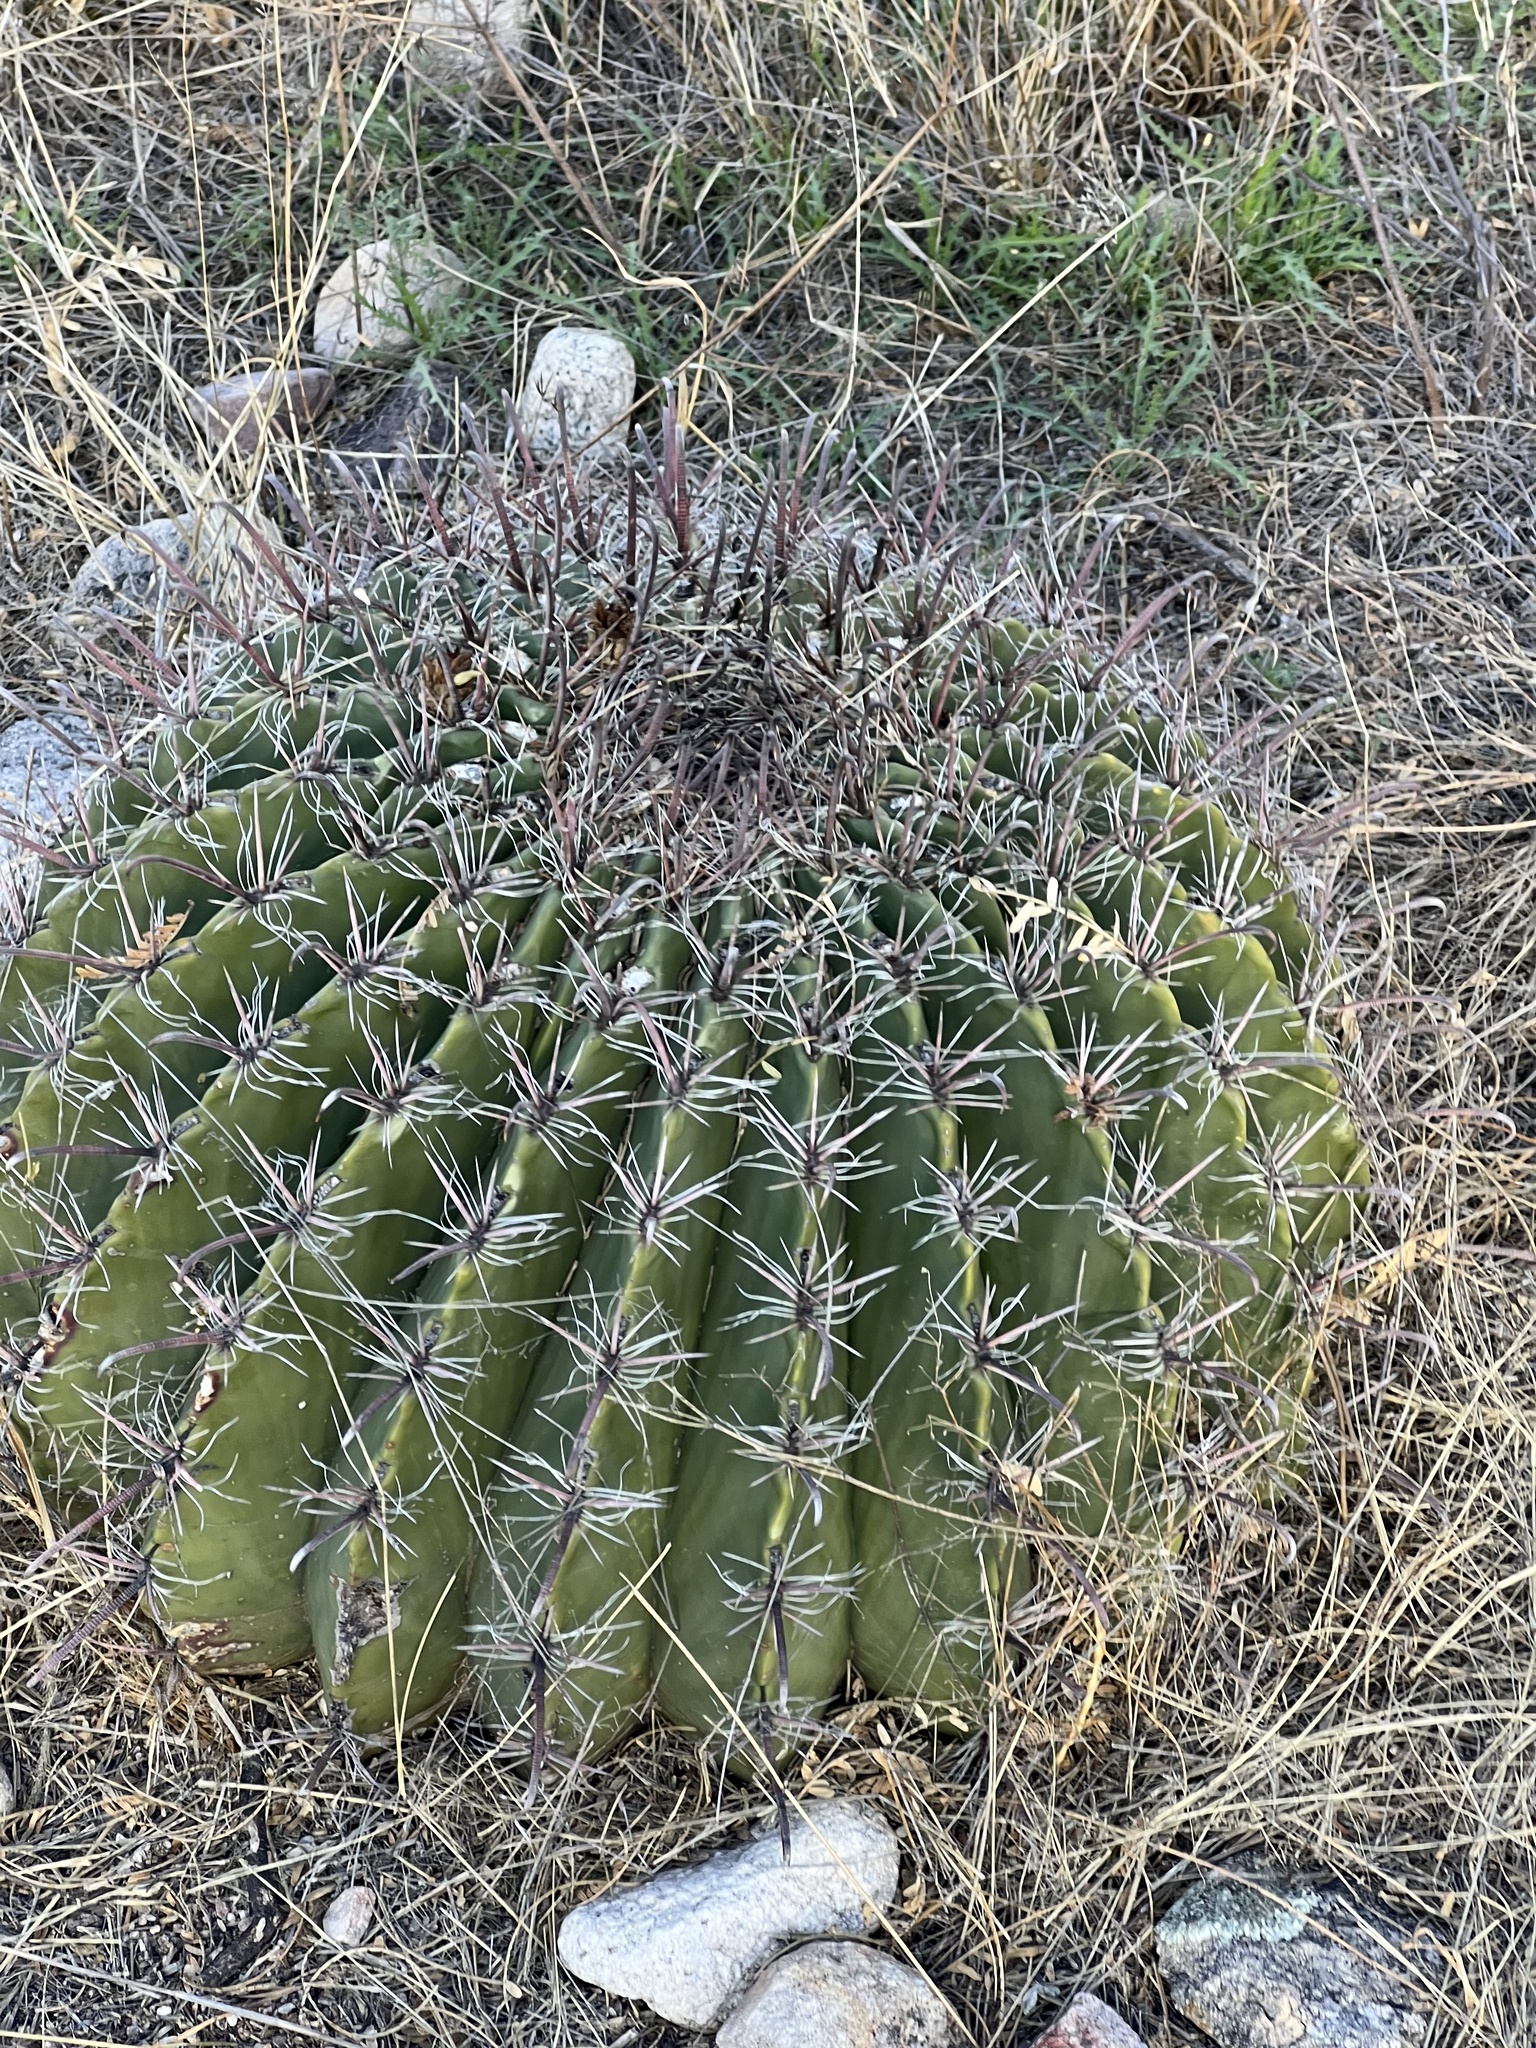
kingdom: Plantae
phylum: Tracheophyta
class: Magnoliopsida
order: Caryophyllales
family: Cactaceae
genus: Ferocactus
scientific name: Ferocactus wislizeni
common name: Candy barrel cactus
